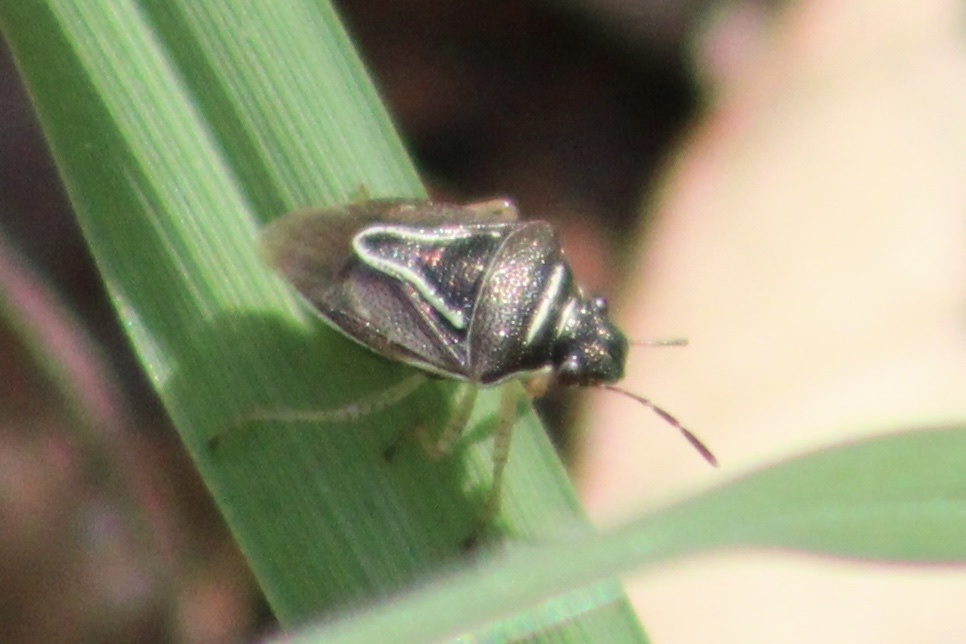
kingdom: Animalia
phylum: Arthropoda
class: Insecta
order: Hemiptera
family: Pentatomidae
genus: Mormidea
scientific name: Mormidea lugens
